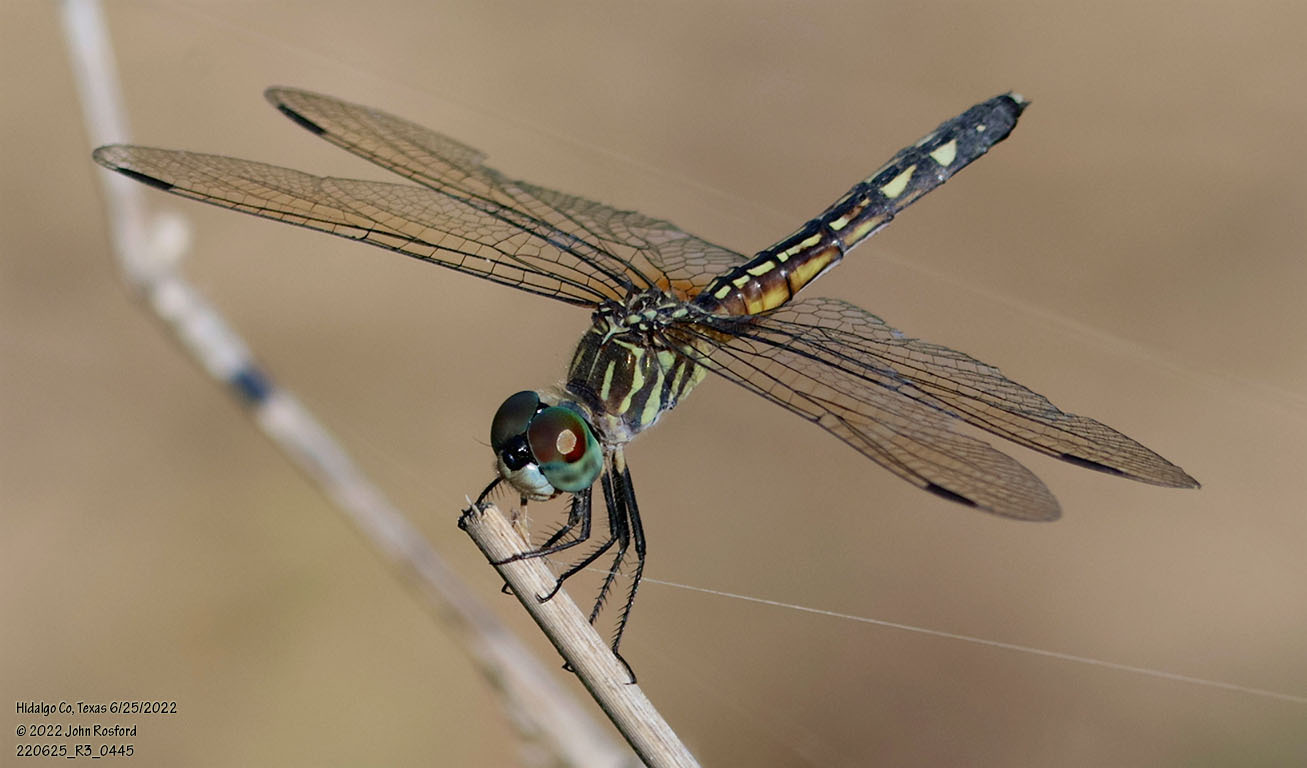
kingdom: Animalia
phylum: Arthropoda
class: Insecta
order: Odonata
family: Libellulidae
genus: Pachydiplax
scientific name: Pachydiplax longipennis
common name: Blue dasher
